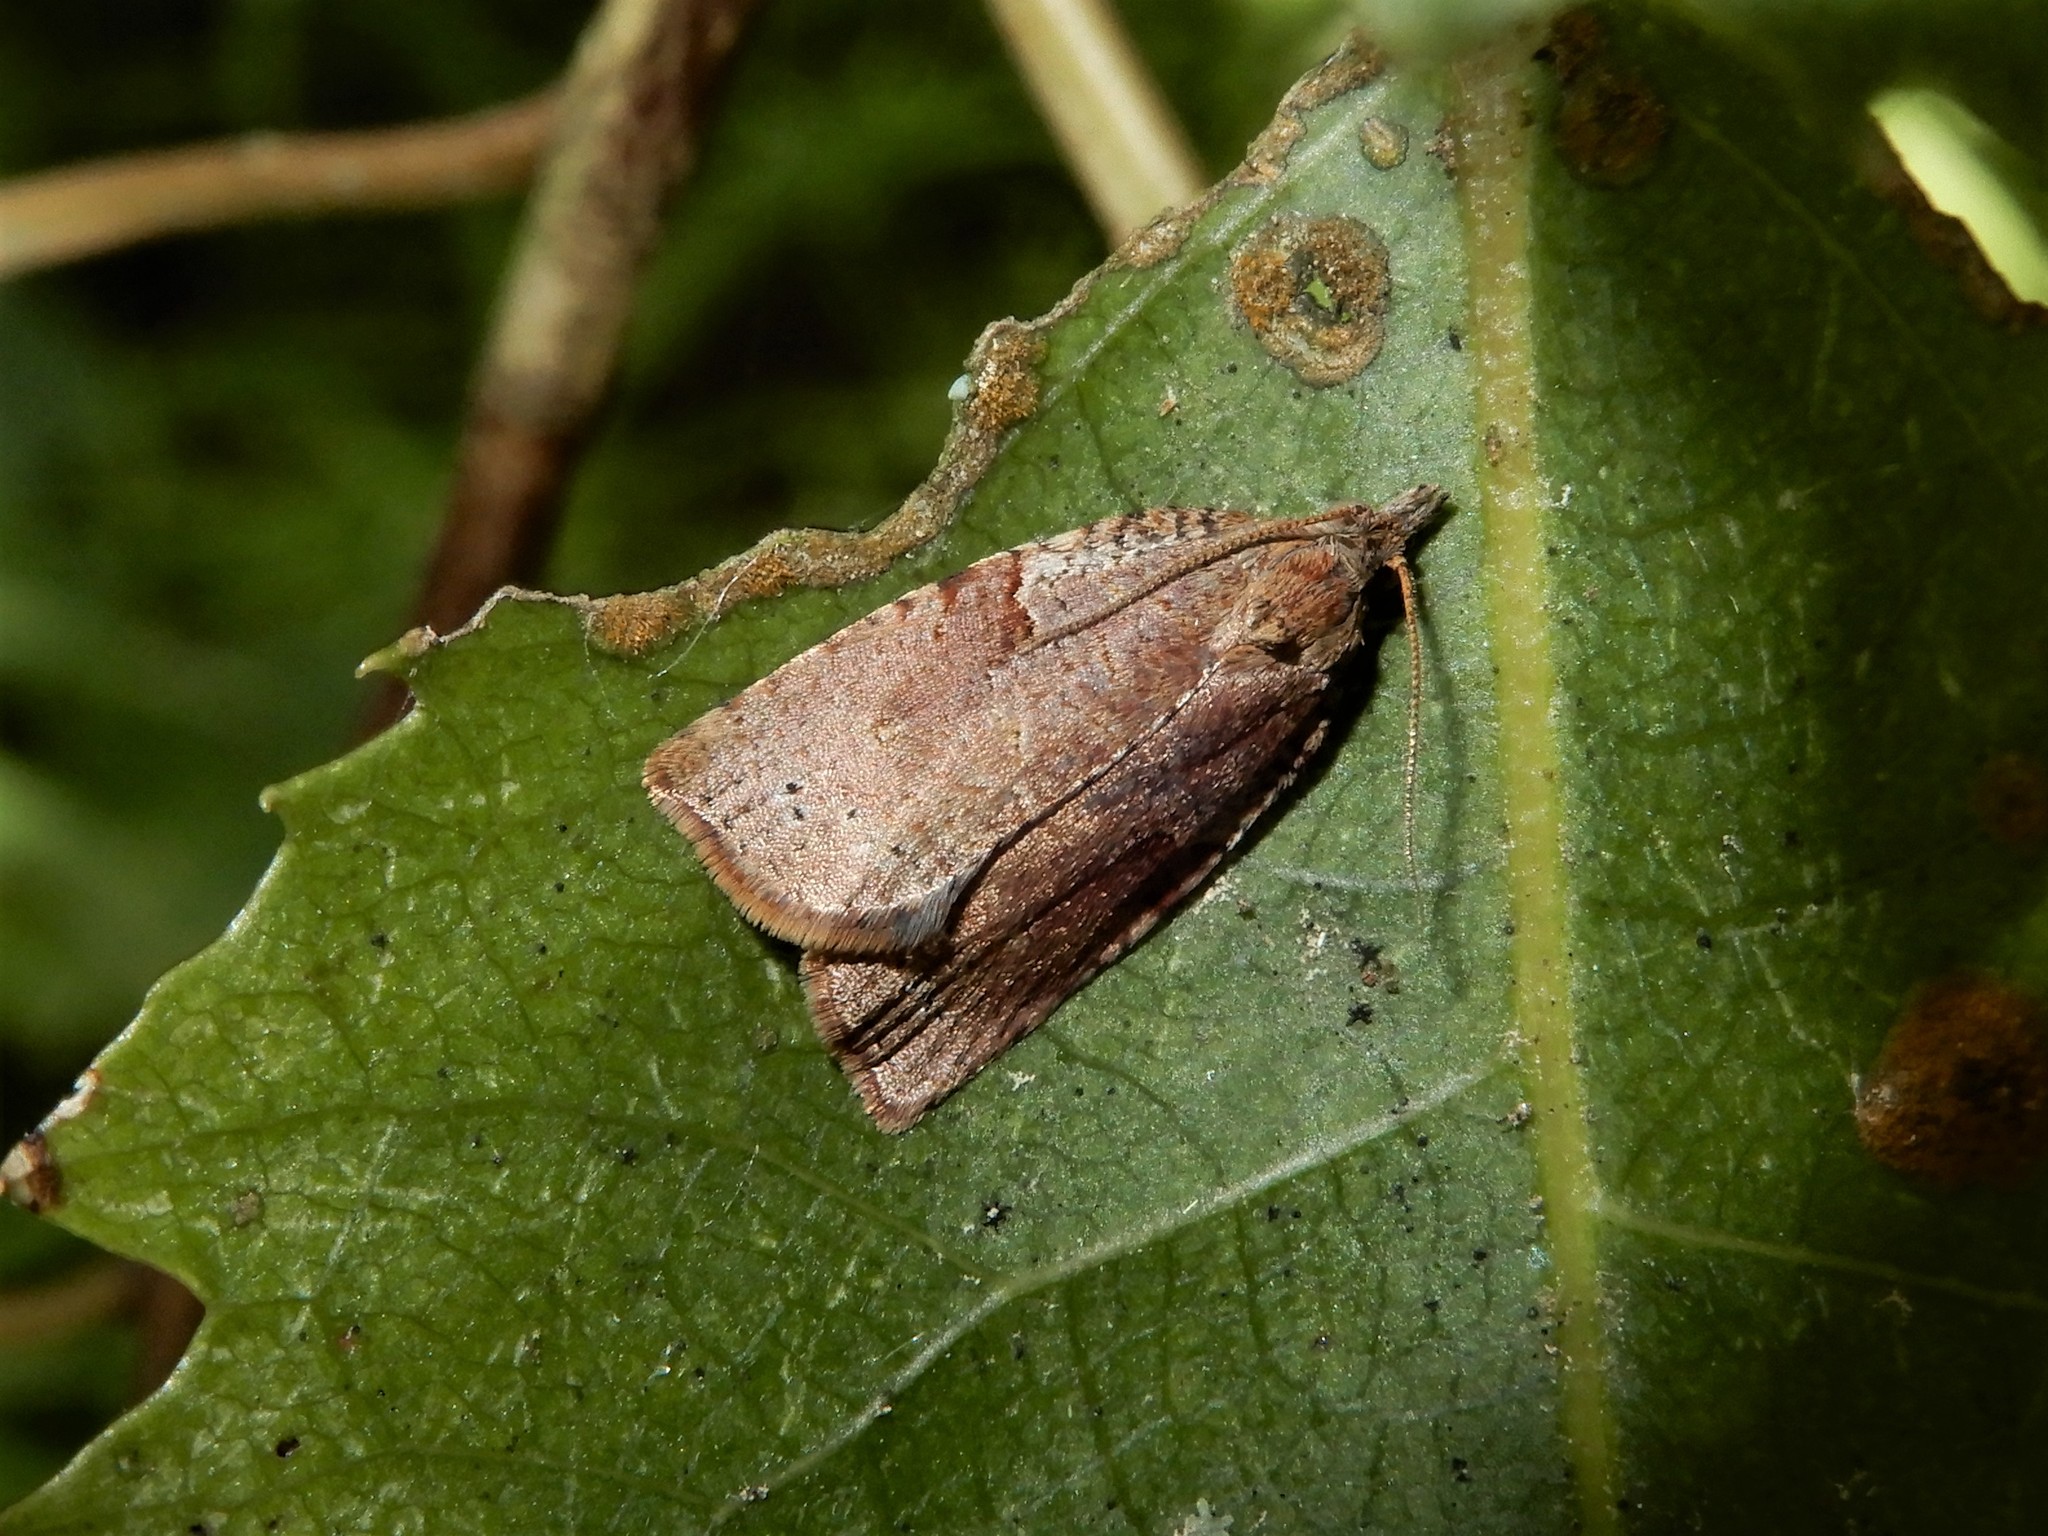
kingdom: Animalia
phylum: Arthropoda
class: Insecta
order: Lepidoptera
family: Tortricidae
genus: Apoctena
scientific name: Apoctena orthropis
